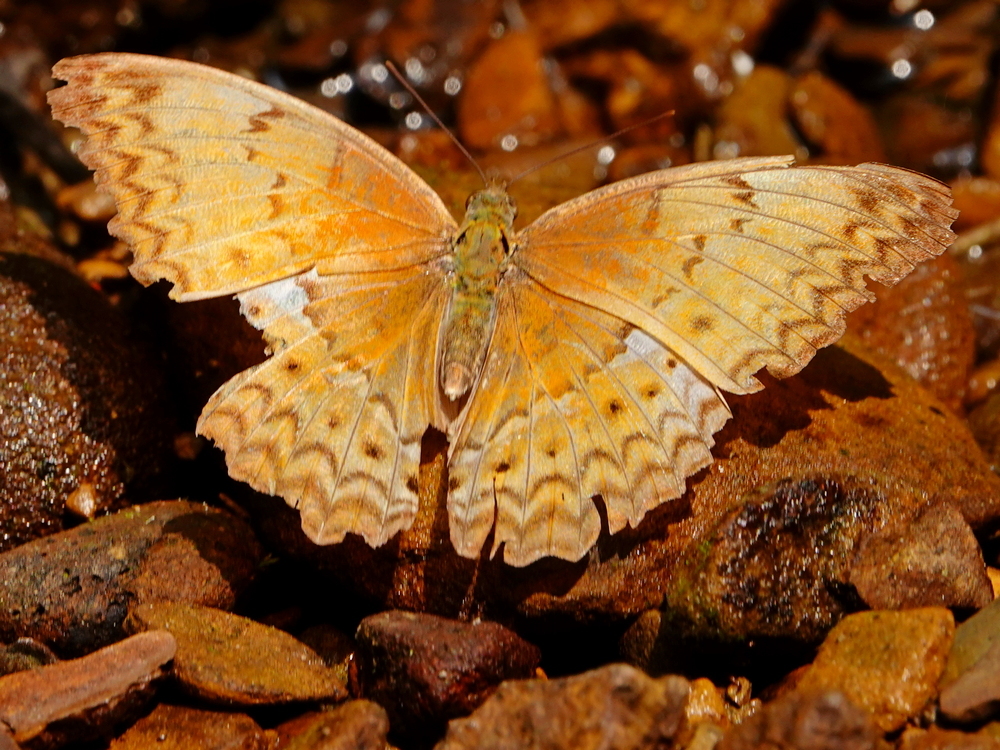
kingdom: Animalia
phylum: Arthropoda
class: Insecta
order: Lepidoptera
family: Nymphalidae
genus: Cirrochroa
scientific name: Cirrochroa tyche
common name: Common yeoman
